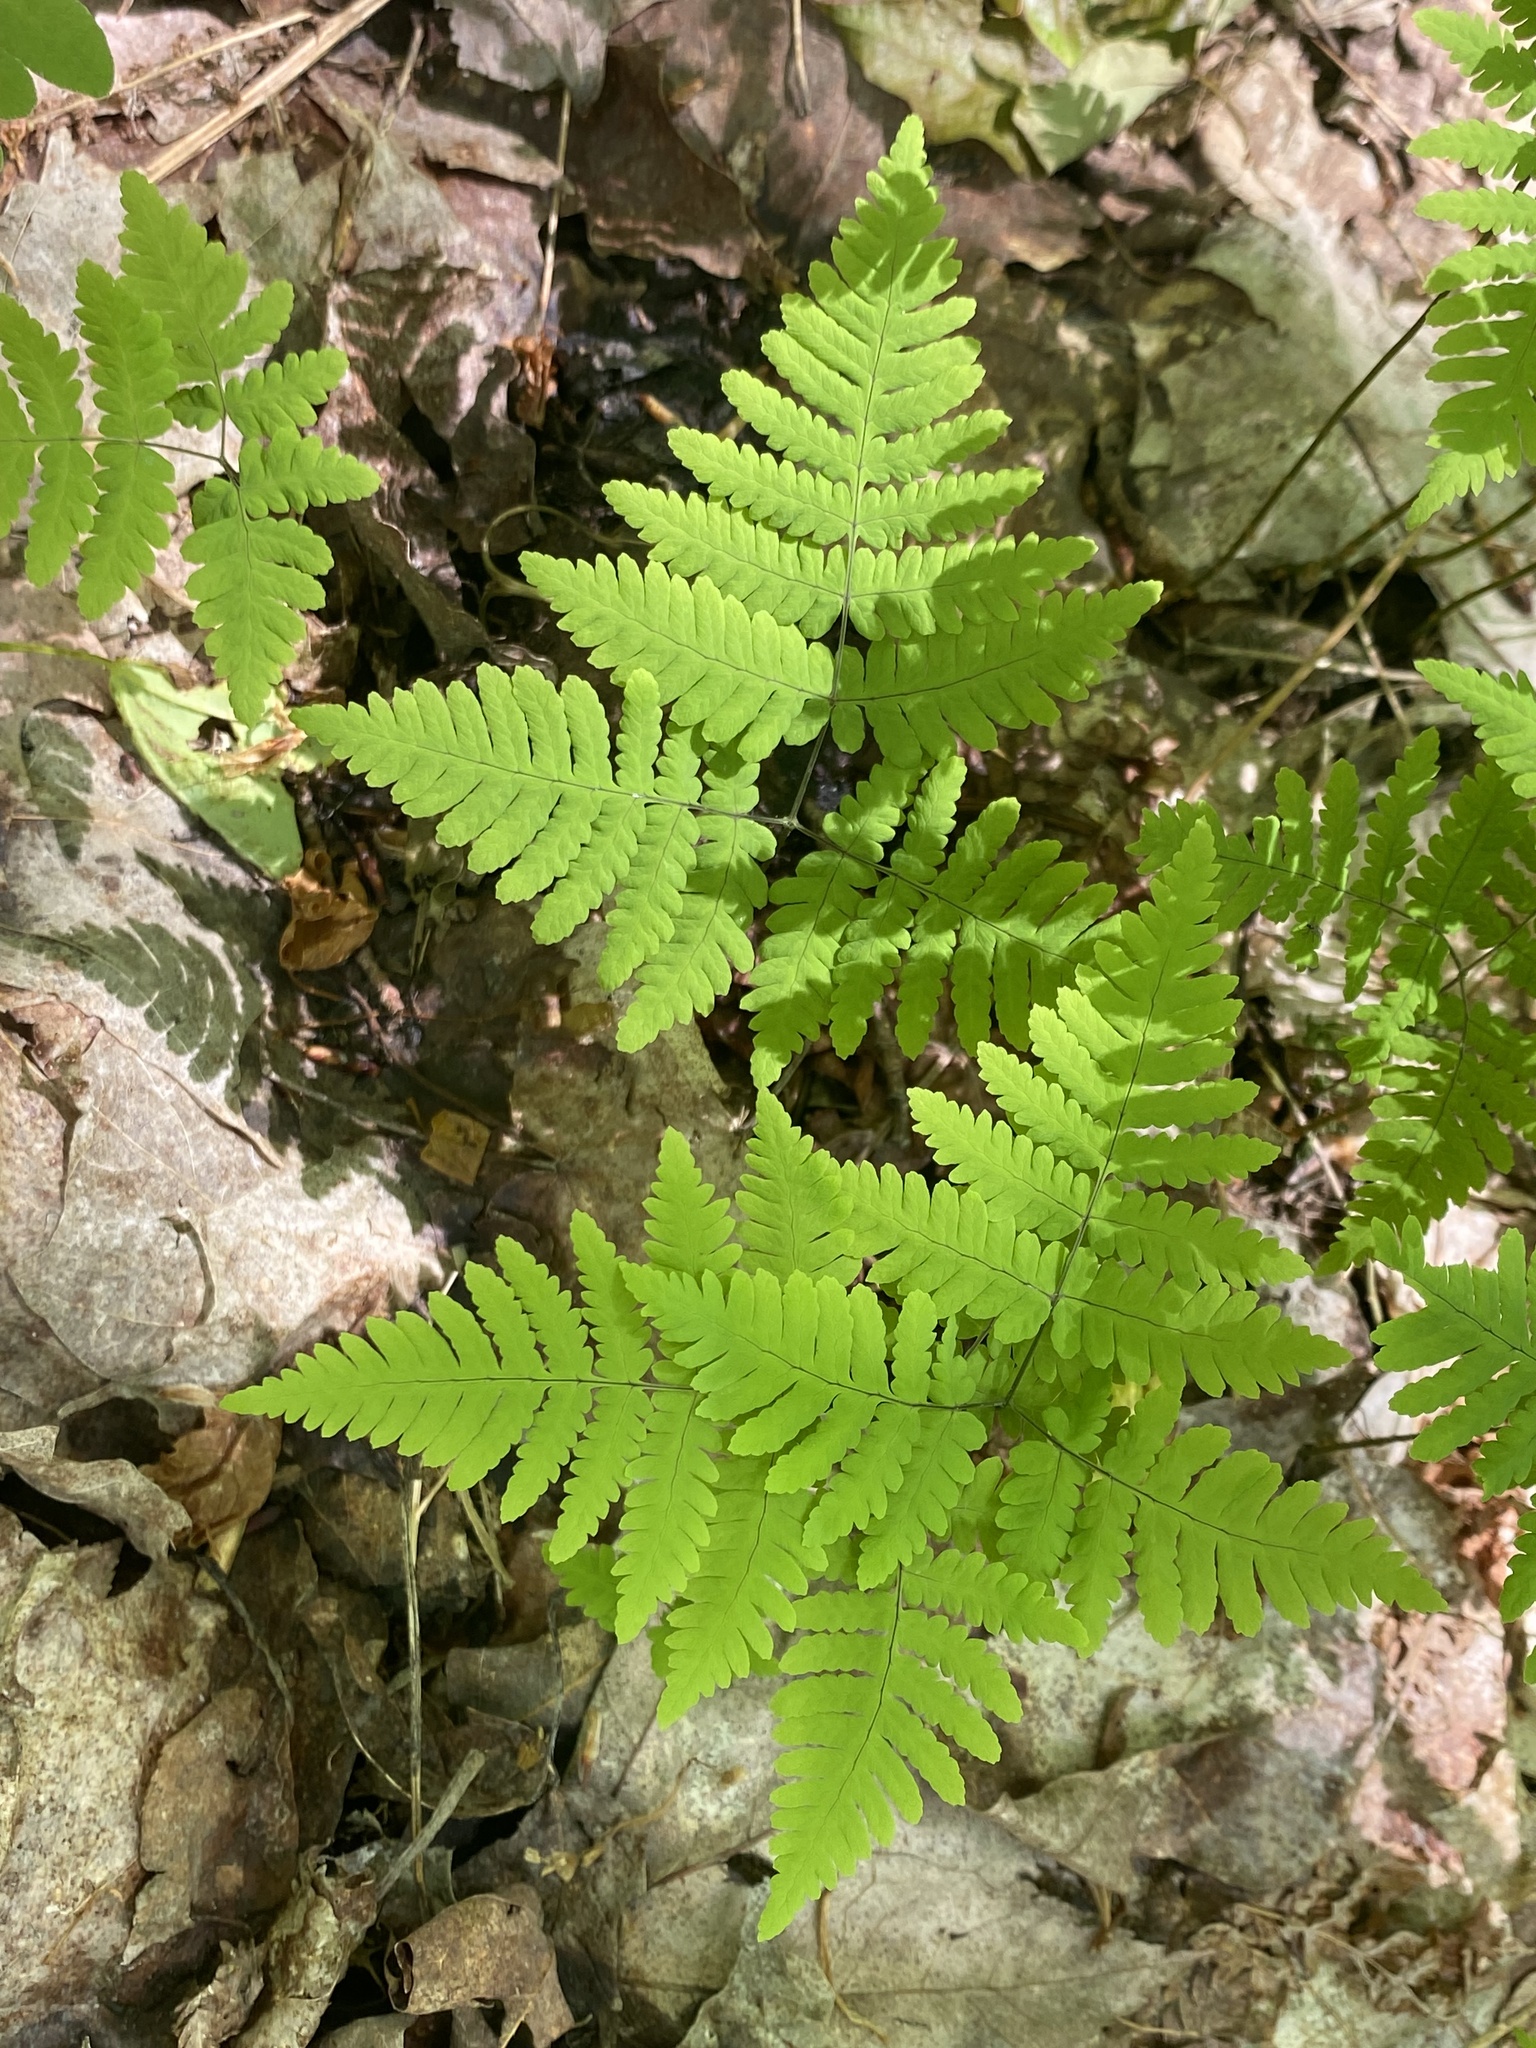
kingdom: Plantae
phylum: Tracheophyta
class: Polypodiopsida
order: Polypodiales
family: Cystopteridaceae
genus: Gymnocarpium
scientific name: Gymnocarpium dryopteris
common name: Oak fern
